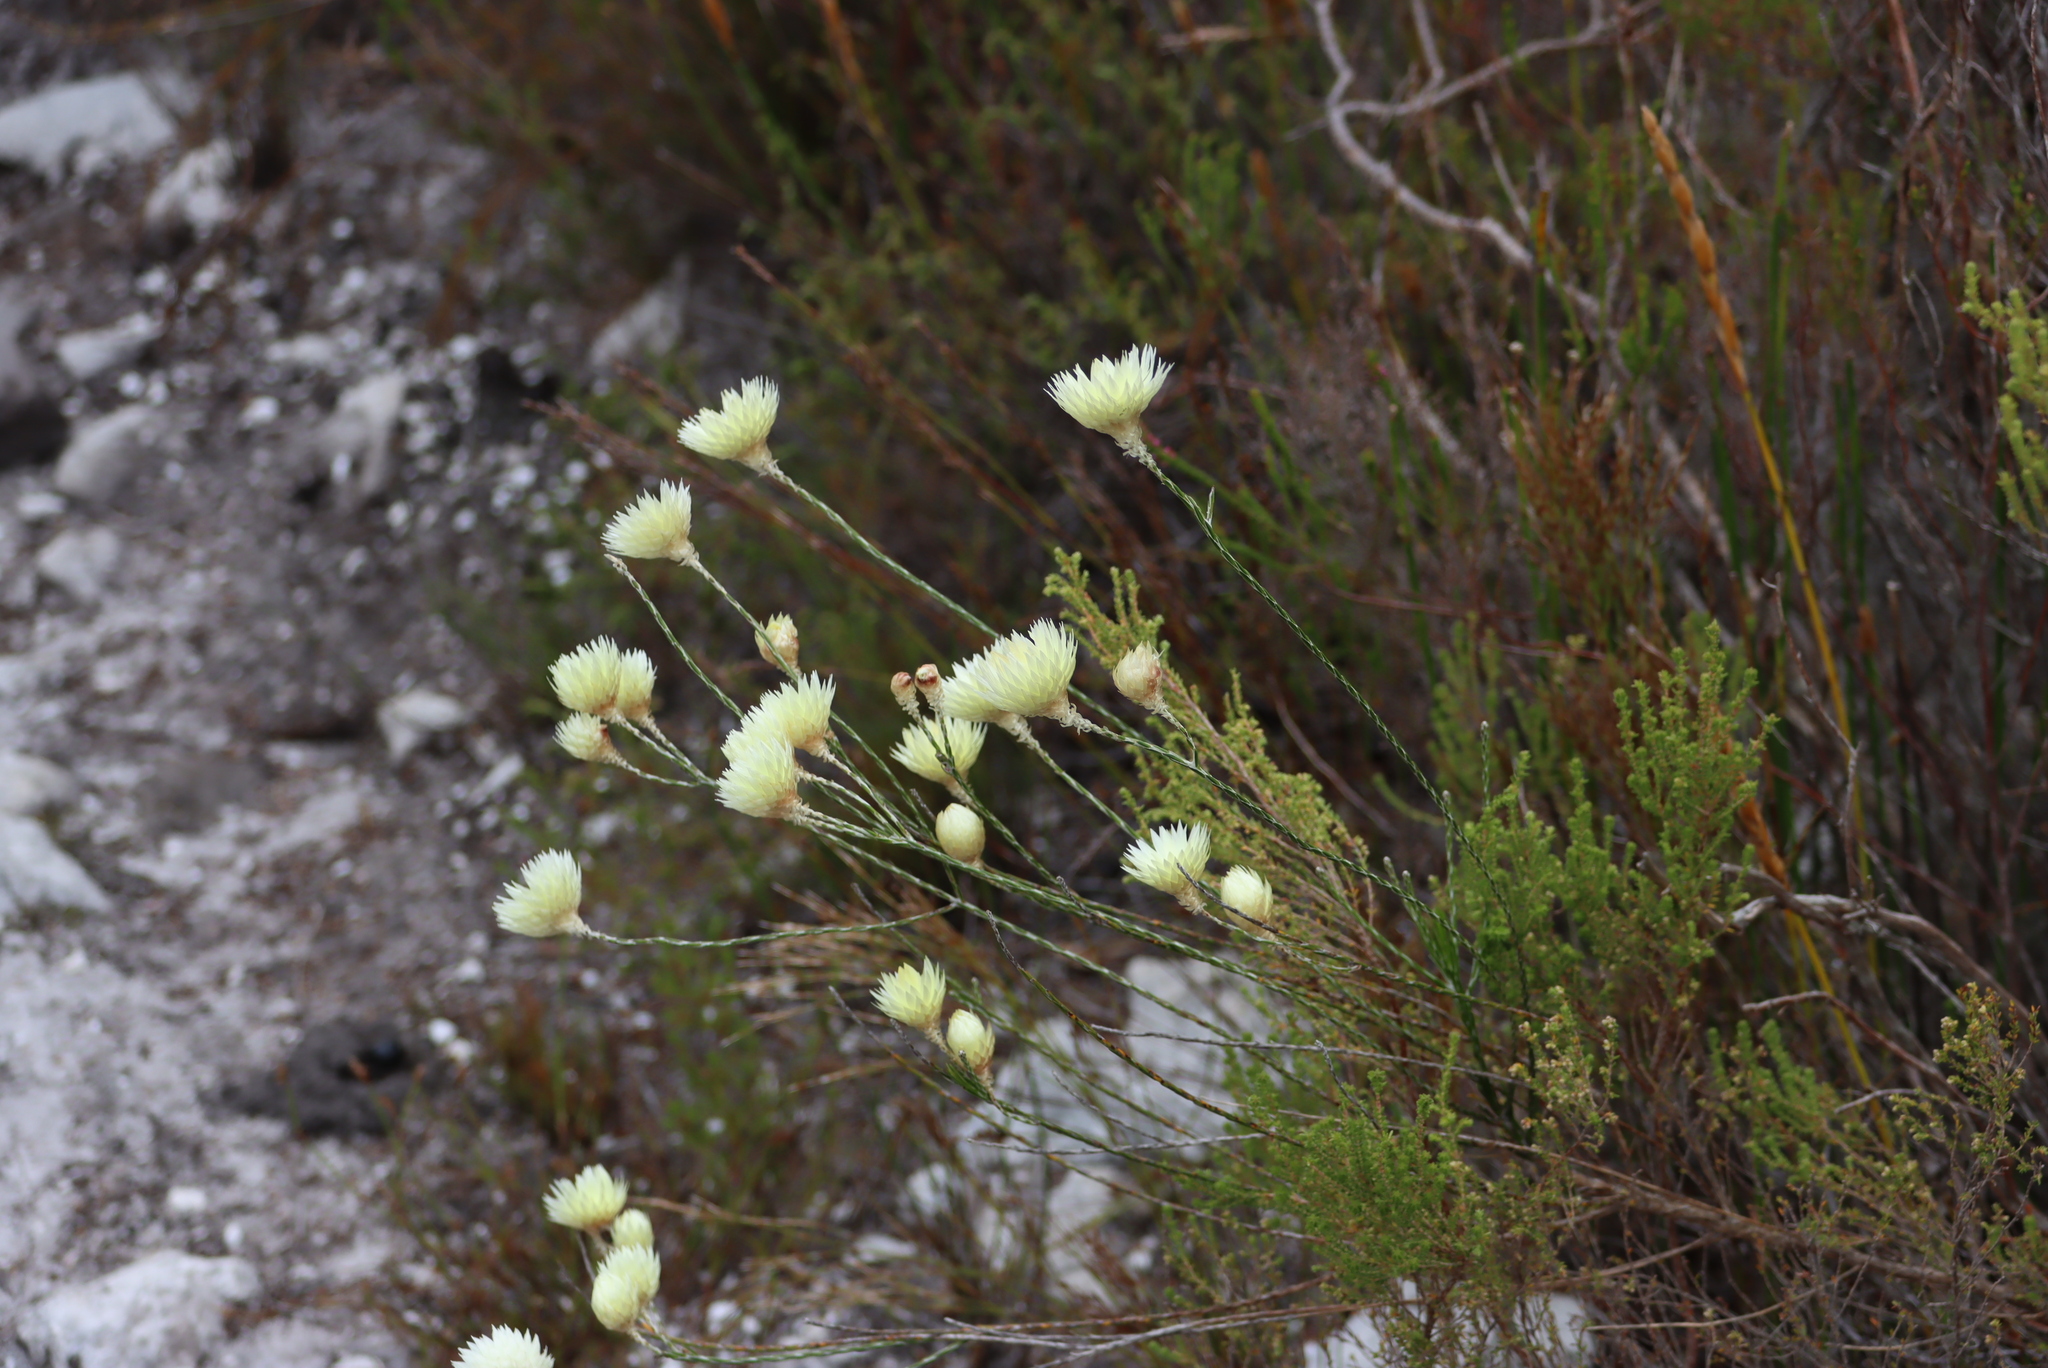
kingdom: Plantae
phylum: Tracheophyta
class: Magnoliopsida
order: Asterales
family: Asteraceae
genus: Edmondia
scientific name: Edmondia sesamoides
